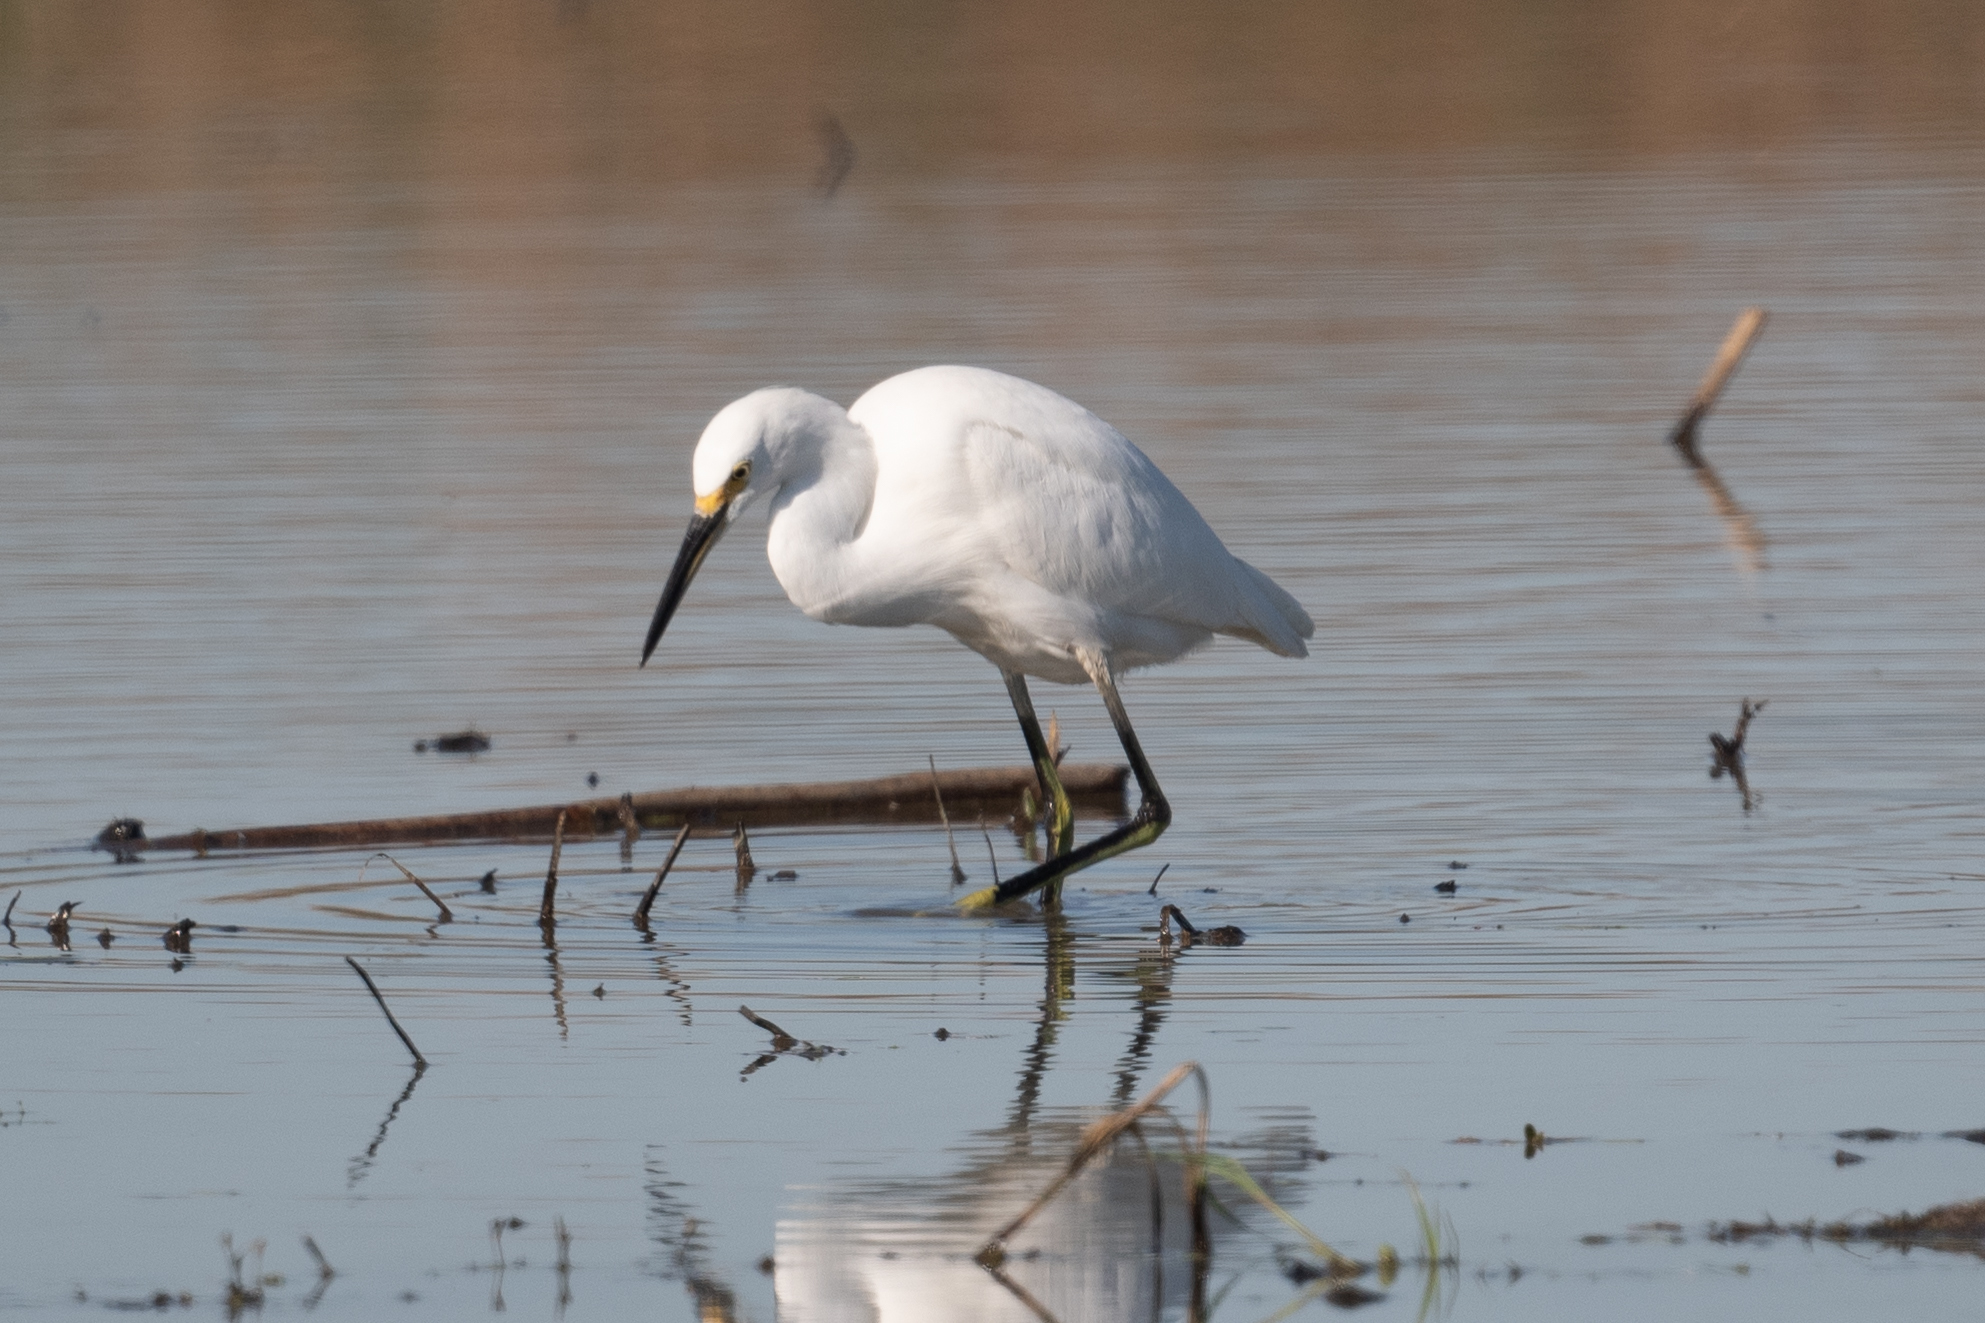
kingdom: Animalia
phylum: Chordata
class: Aves
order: Pelecaniformes
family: Ardeidae
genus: Egretta
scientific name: Egretta thula
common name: Snowy egret
